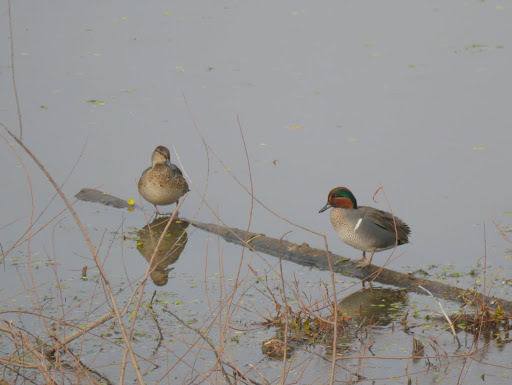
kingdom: Animalia
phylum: Chordata
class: Aves
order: Anseriformes
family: Anatidae
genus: Anas
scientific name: Anas crecca
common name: Eurasian teal
